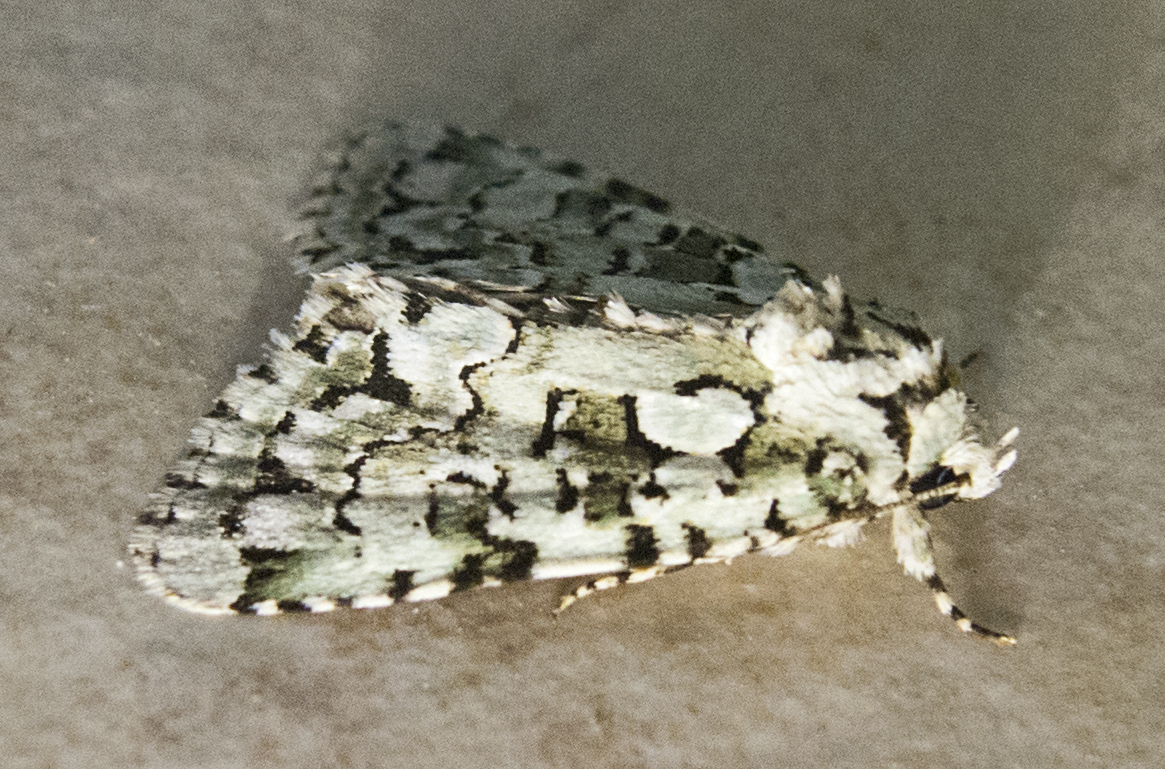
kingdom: Animalia
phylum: Arthropoda
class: Insecta
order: Lepidoptera
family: Noctuidae
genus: Nyctobrya
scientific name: Nyctobrya muralis
